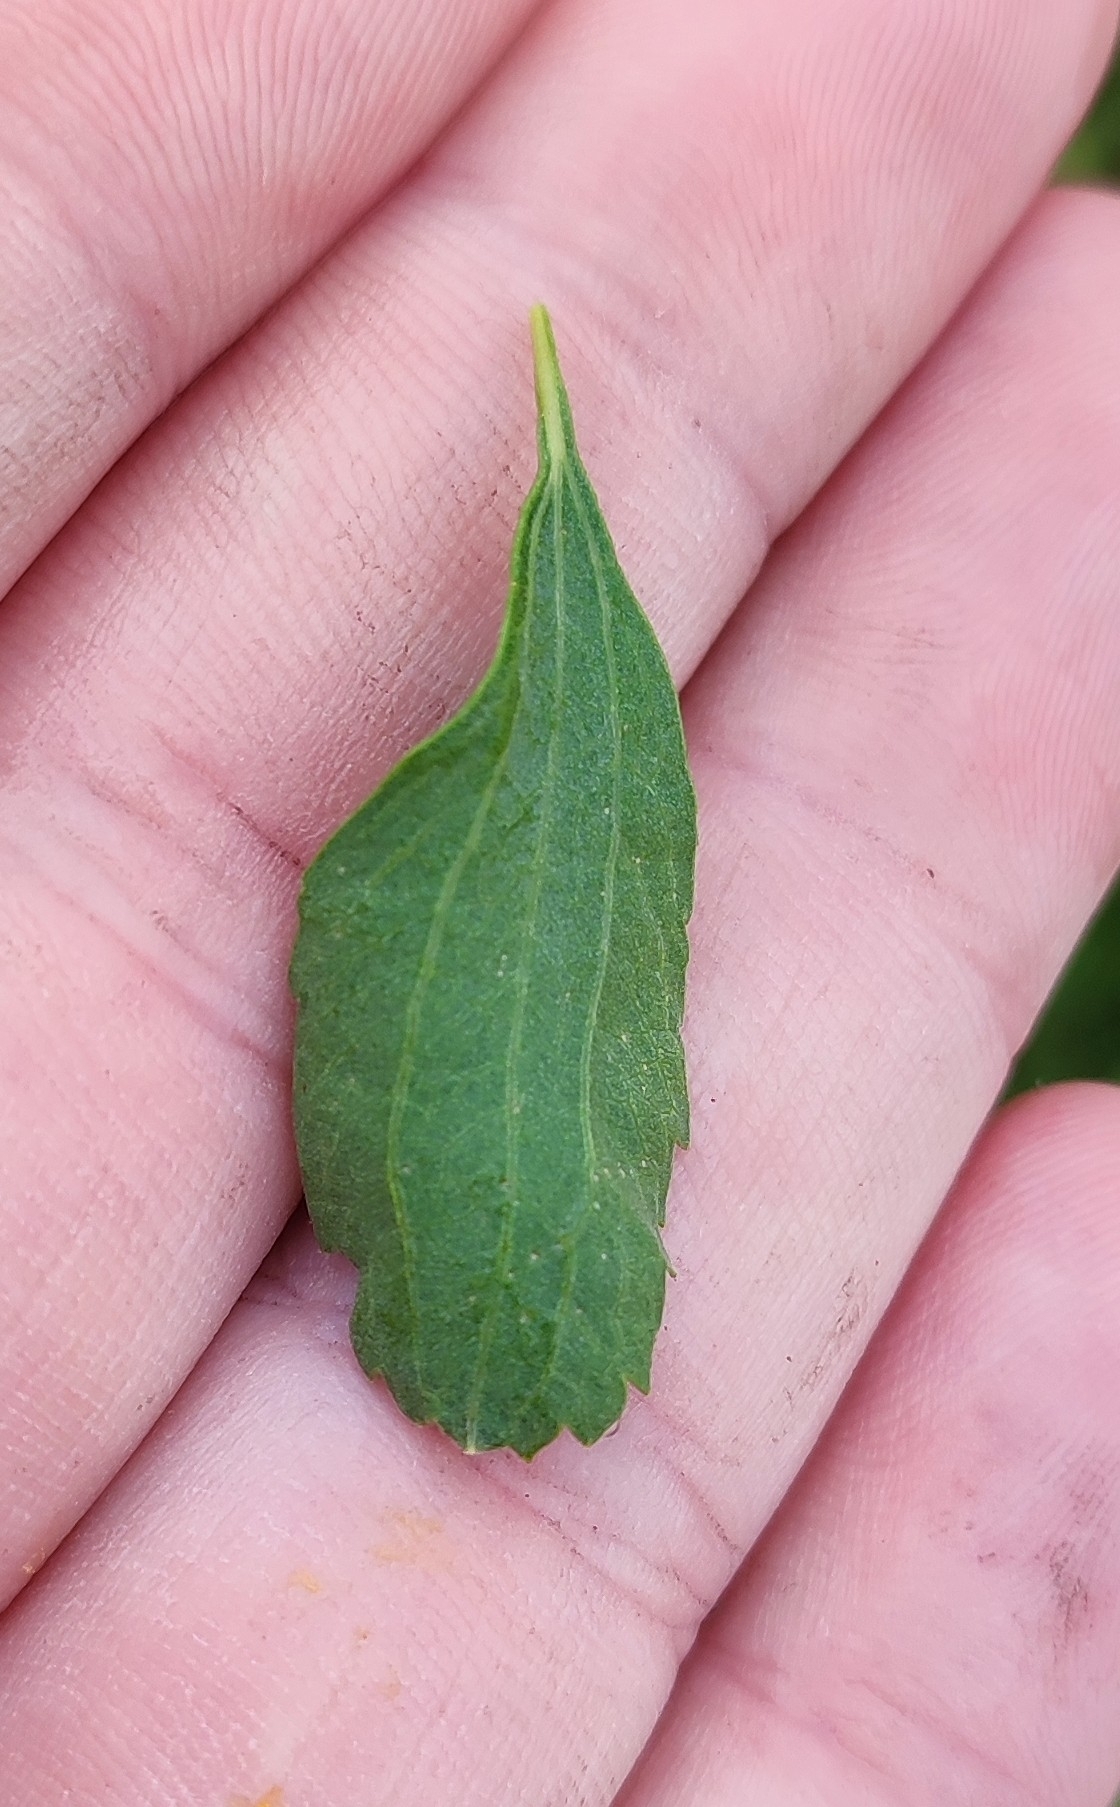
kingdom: Plantae
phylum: Tracheophyta
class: Magnoliopsida
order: Rosales
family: Rosaceae
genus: Spiraea
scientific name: Spiraea crenata
